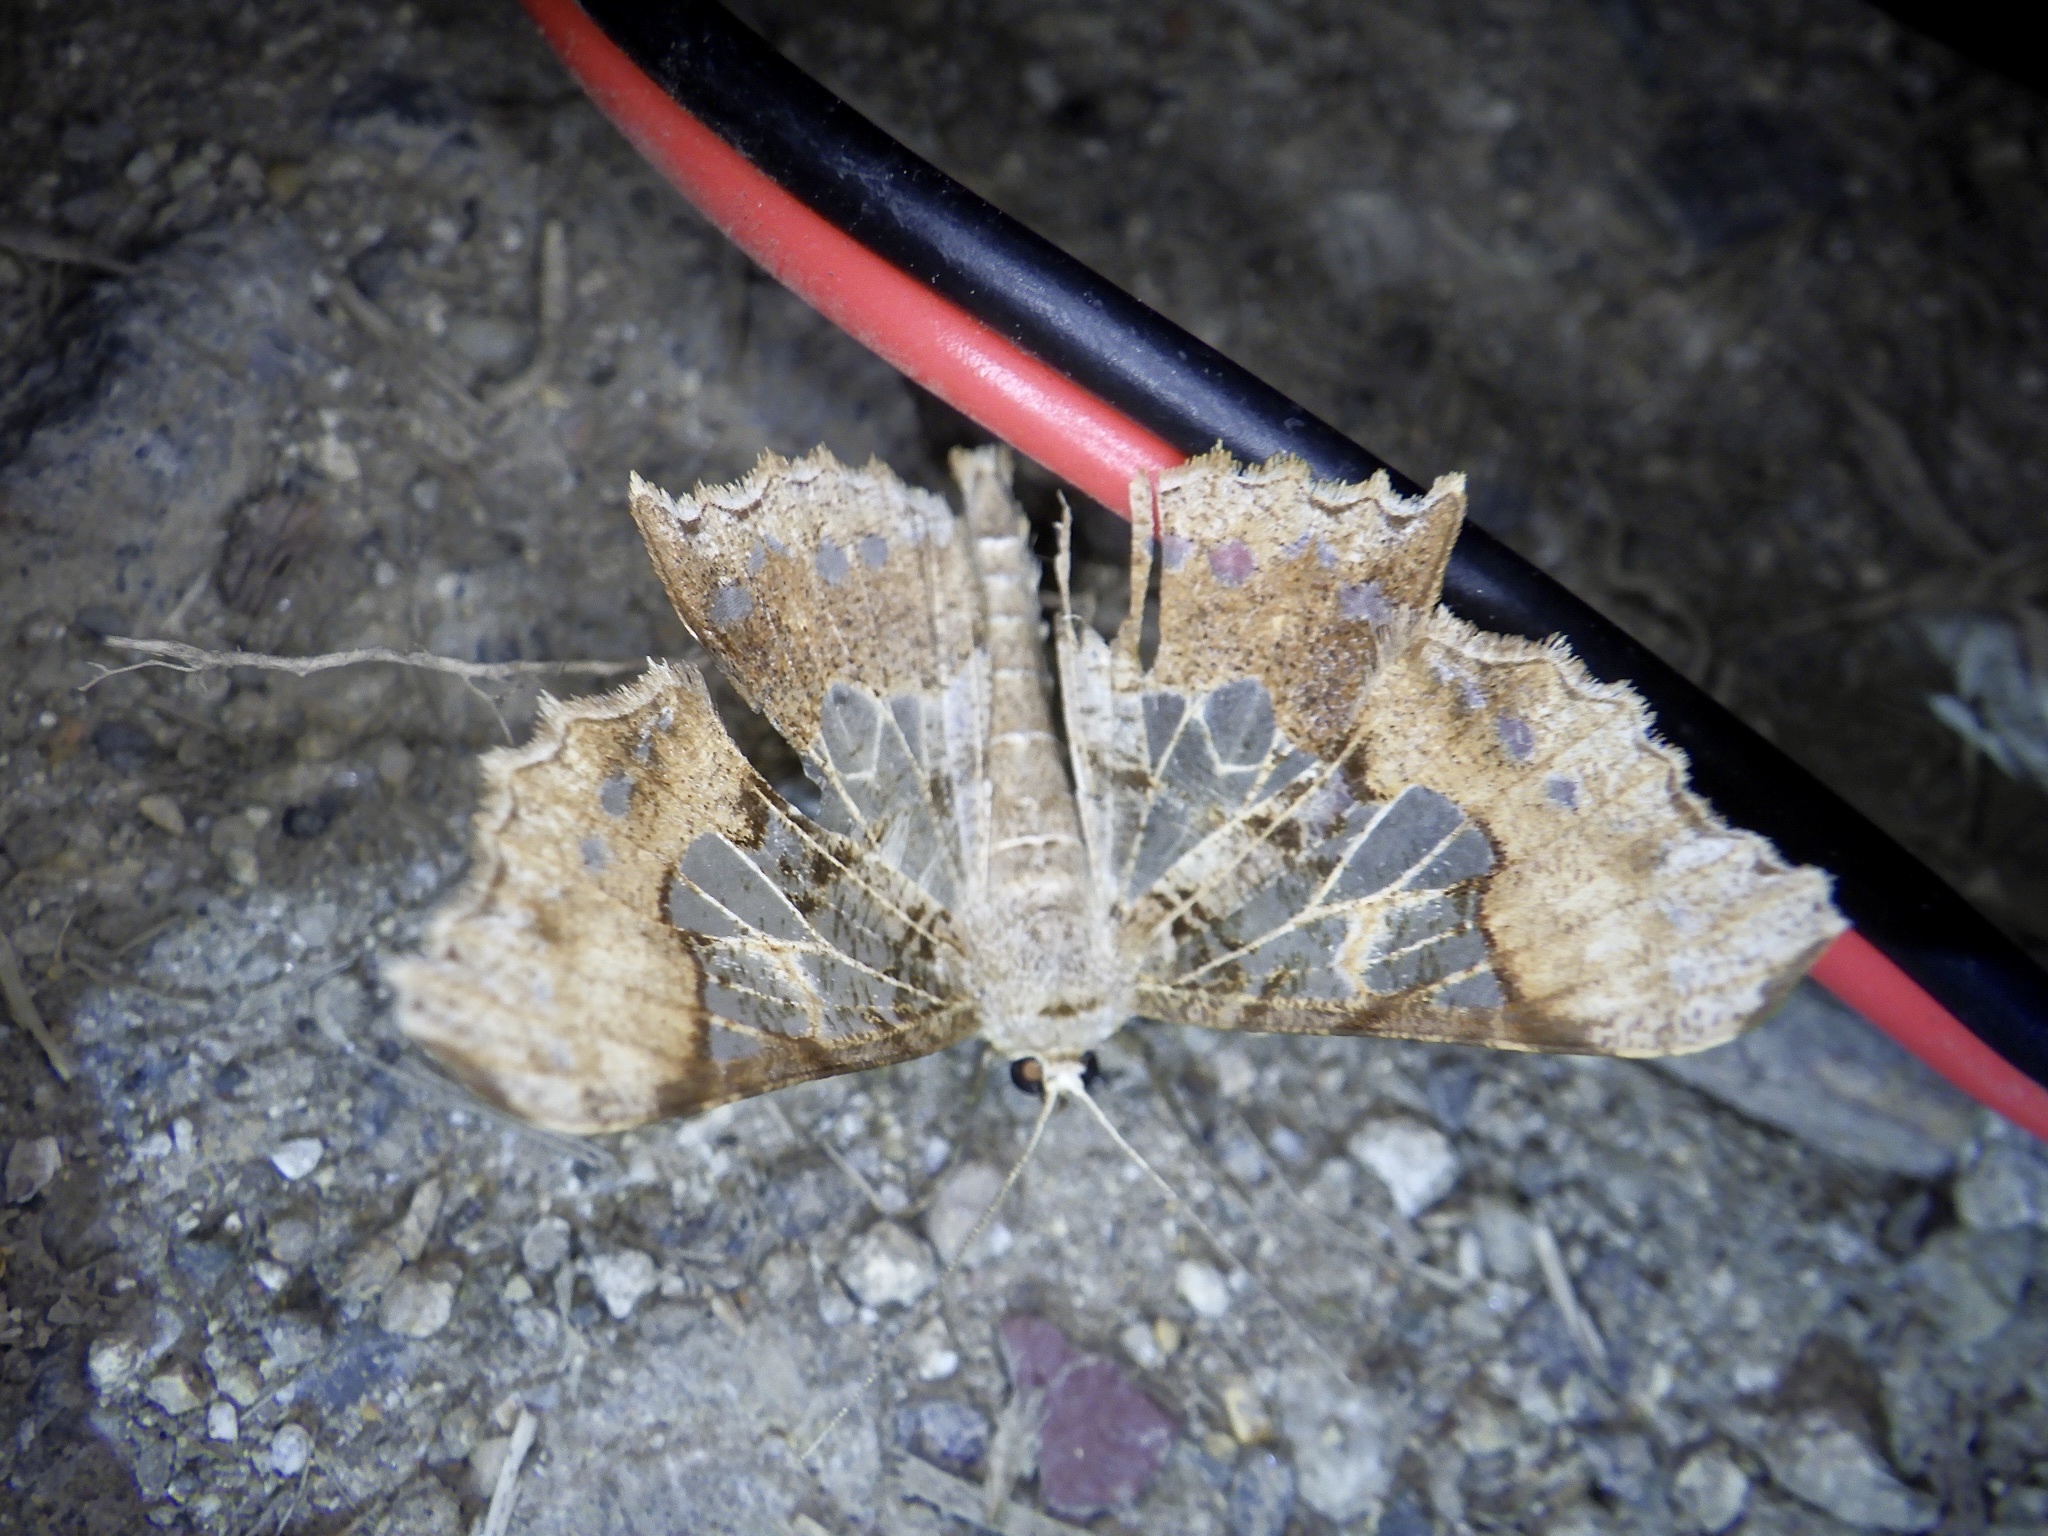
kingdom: Animalia
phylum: Arthropoda
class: Insecta
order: Lepidoptera
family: Geometridae
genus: Krananda
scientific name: Krananda semihyalina
